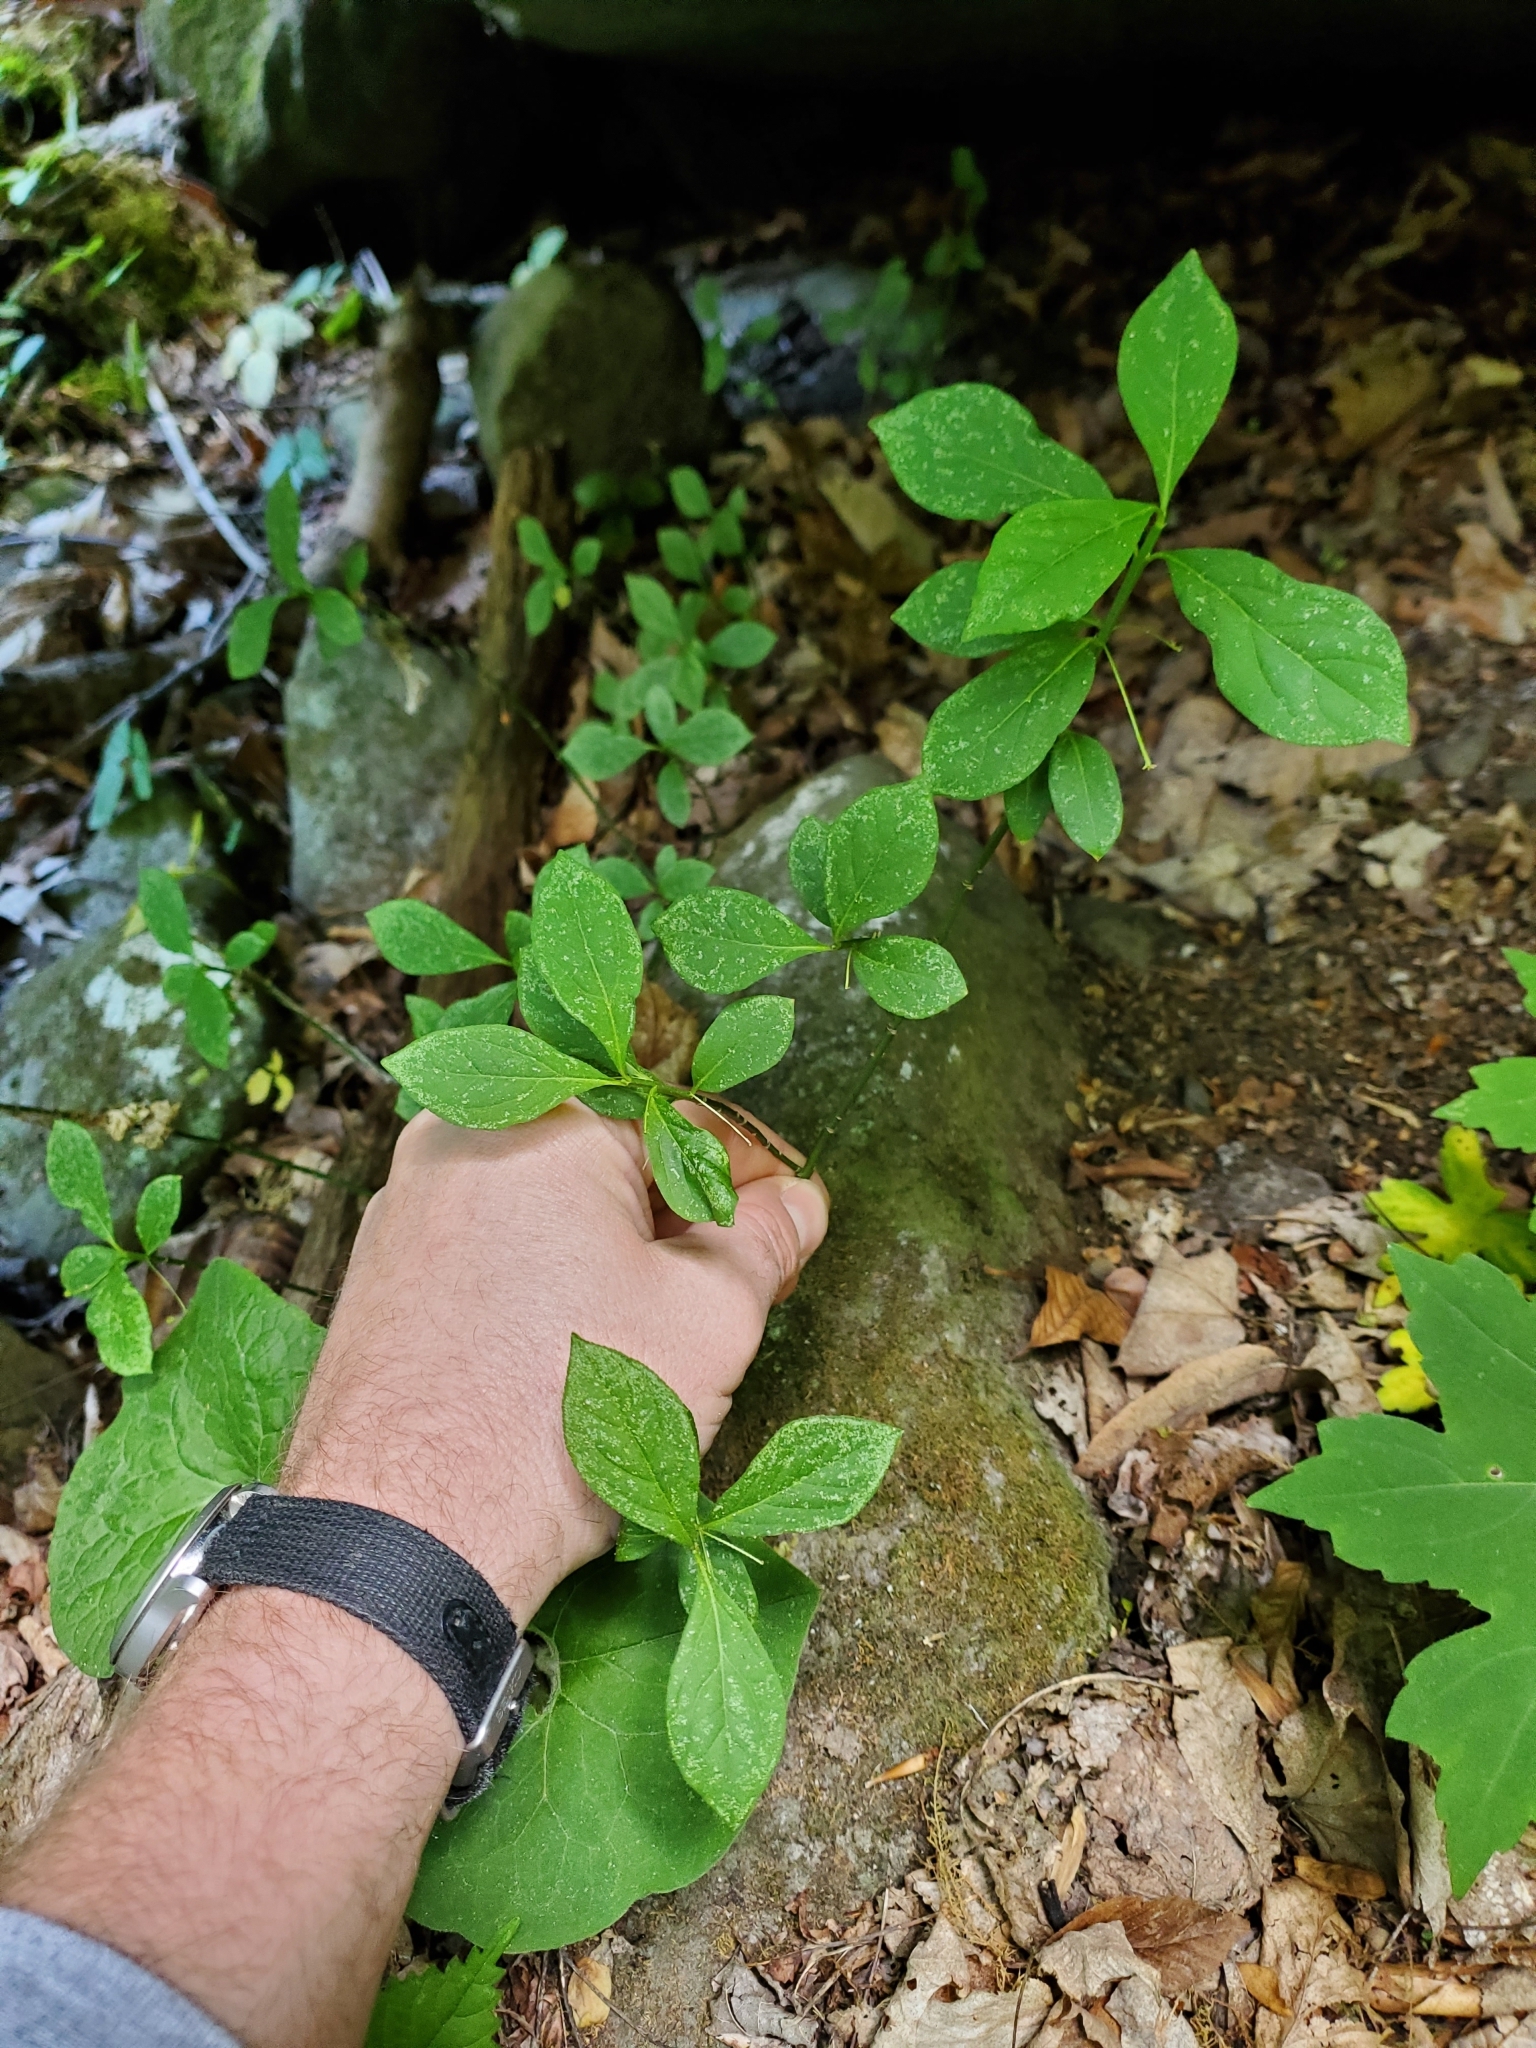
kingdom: Plantae
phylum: Tracheophyta
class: Magnoliopsida
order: Celastrales
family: Celastraceae
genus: Euonymus
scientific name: Euonymus obovatus
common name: Running strawberry-bush
